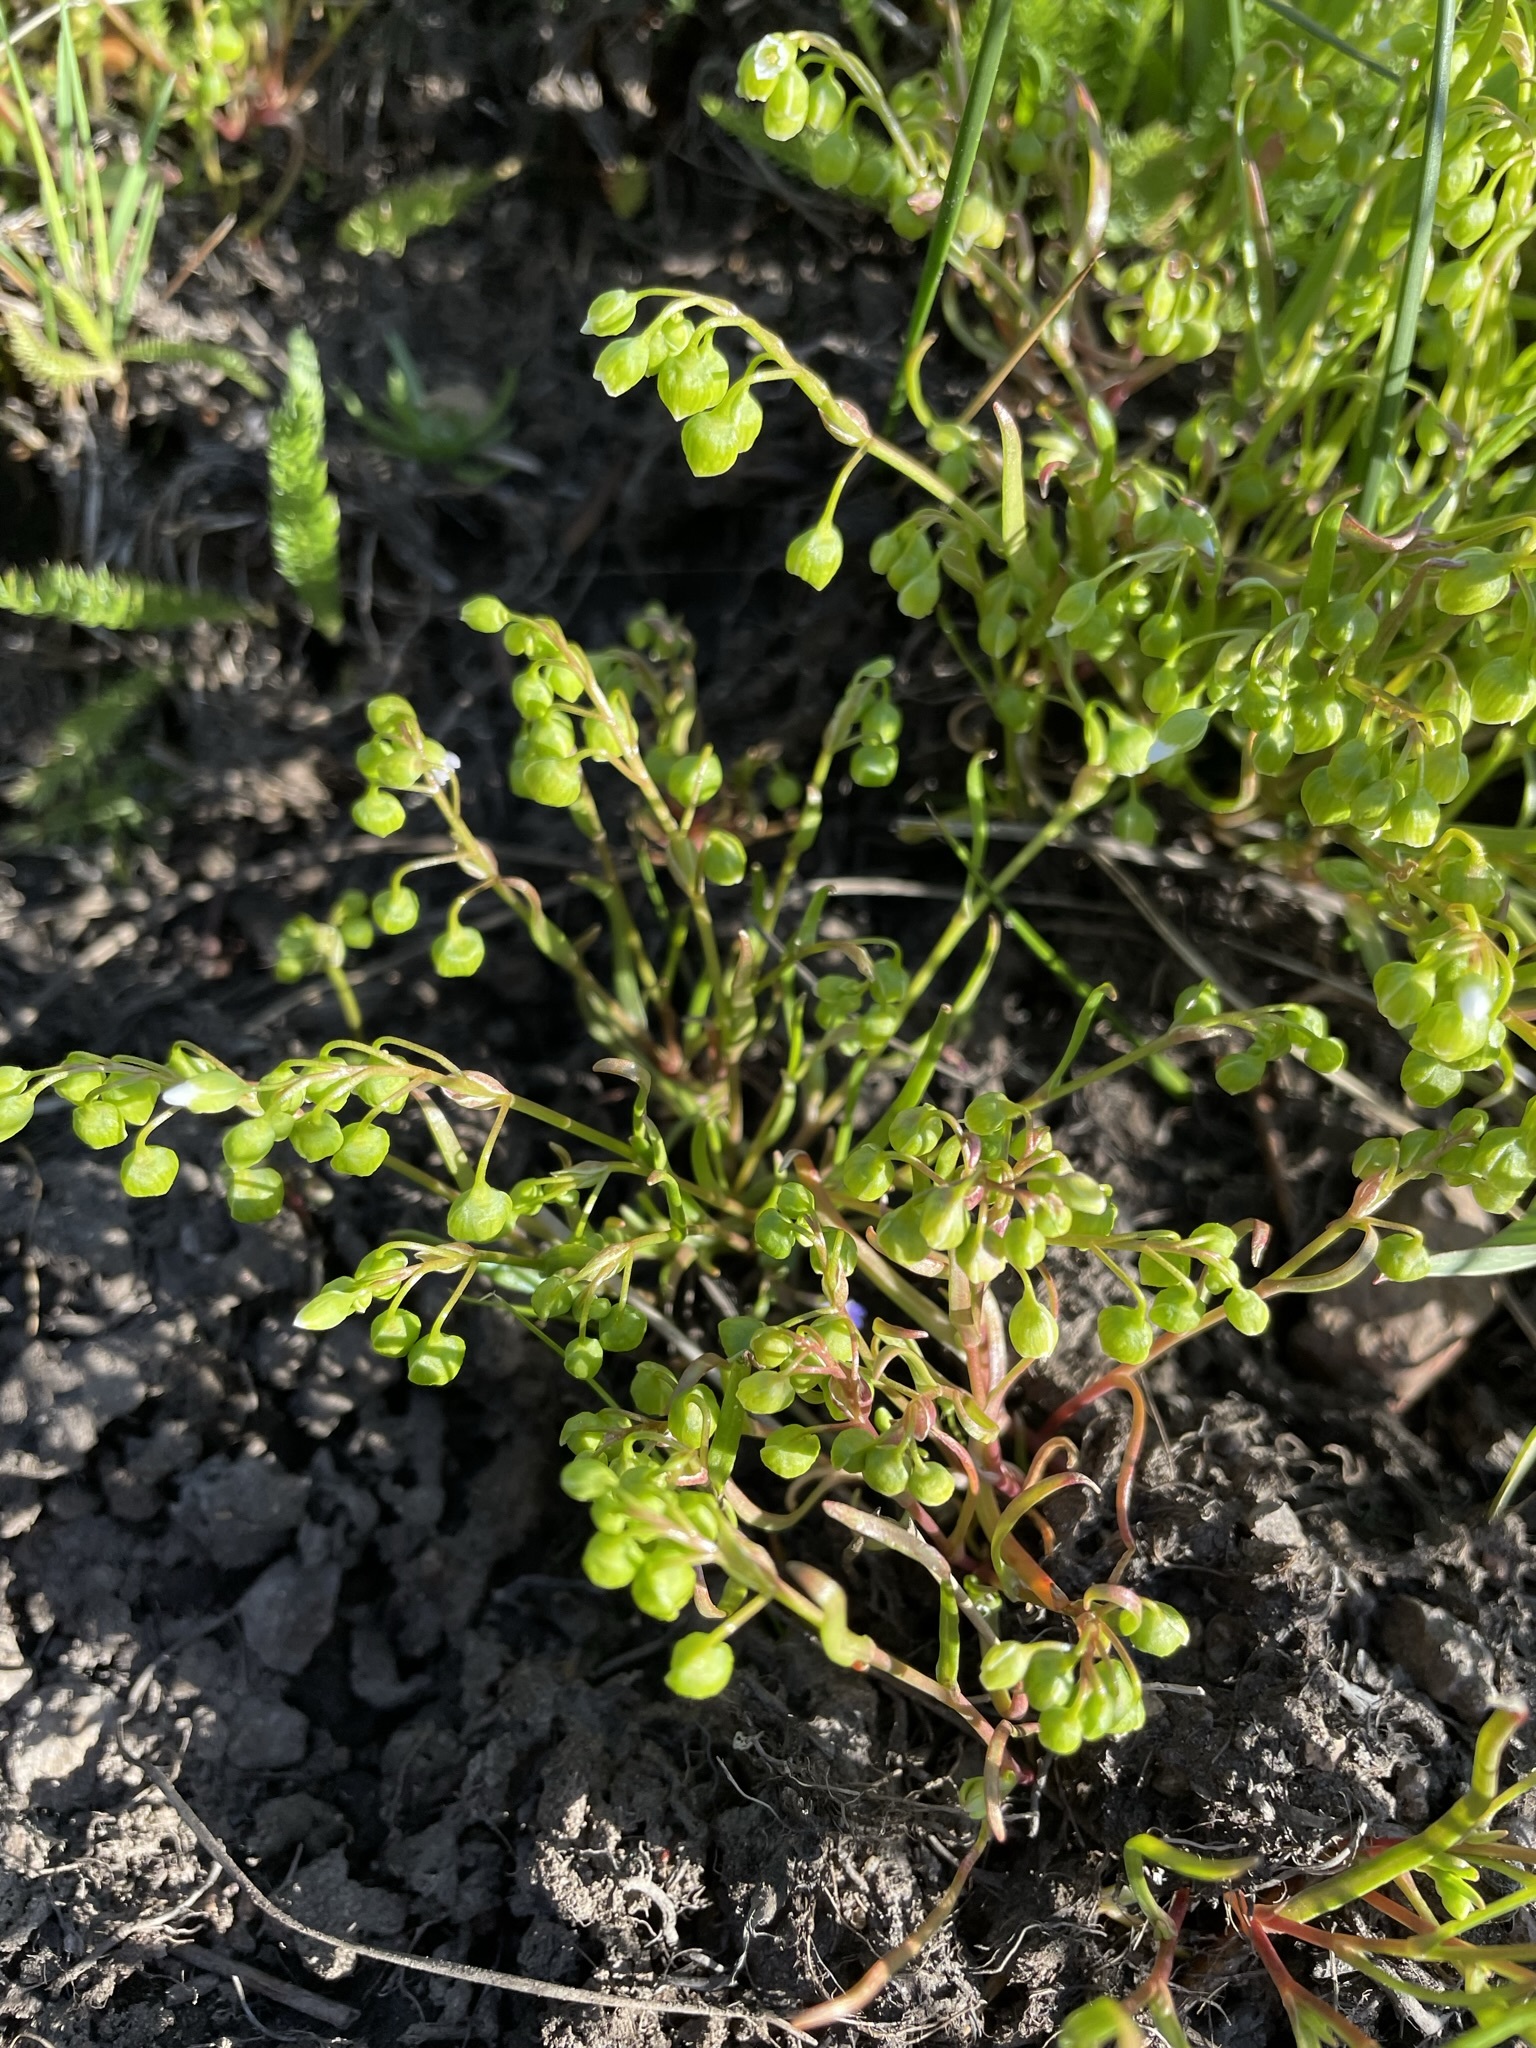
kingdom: Plantae
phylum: Tracheophyta
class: Magnoliopsida
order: Caryophyllales
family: Montiaceae
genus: Montia
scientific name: Montia linearis
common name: Narrow-leaf montia
